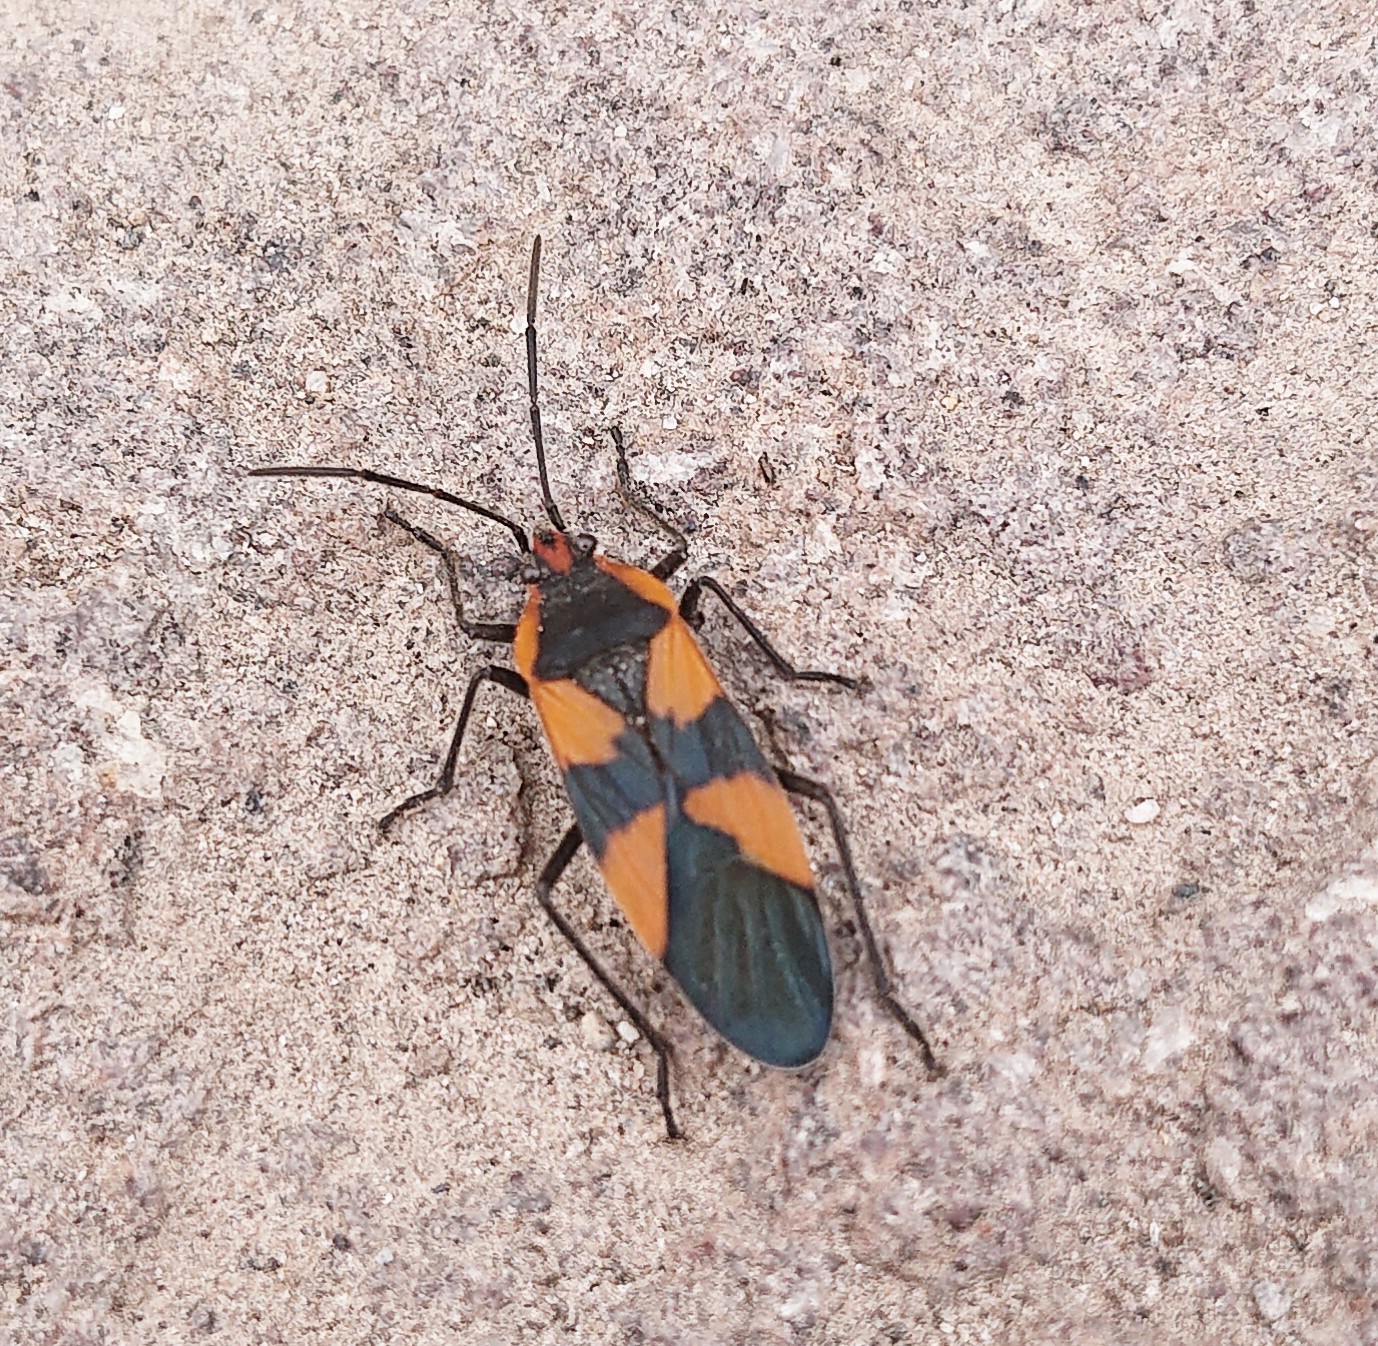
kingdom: Animalia
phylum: Arthropoda
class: Insecta
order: Hemiptera
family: Lygaeidae
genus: Oncopeltus
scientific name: Oncopeltus miles
